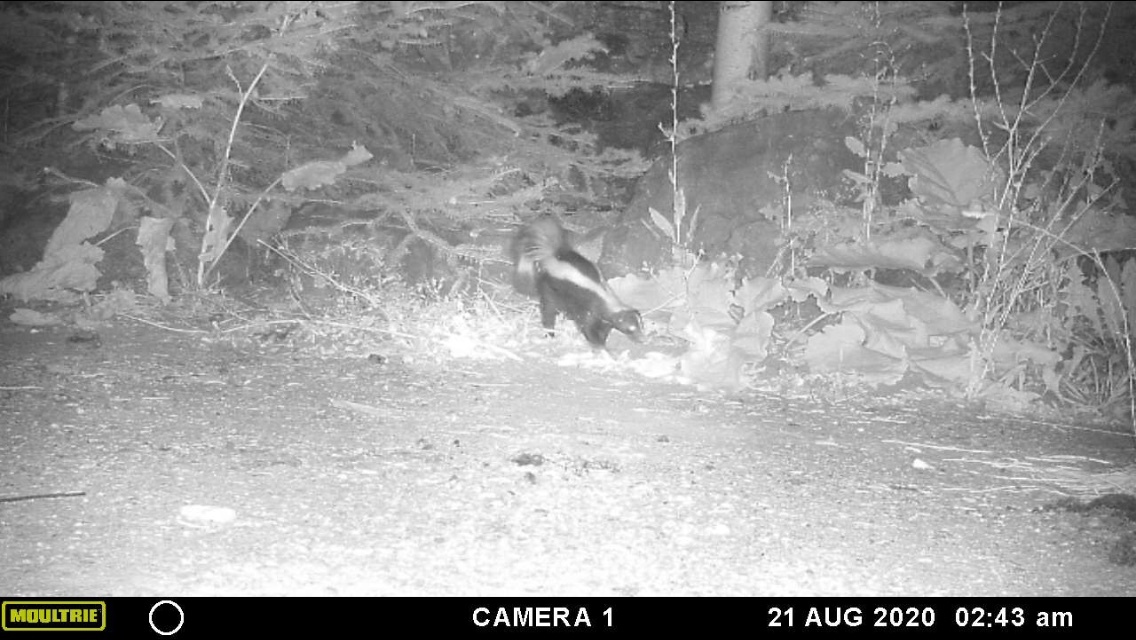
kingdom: Animalia
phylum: Chordata
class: Mammalia
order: Carnivora
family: Mephitidae
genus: Mephitis
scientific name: Mephitis mephitis
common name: Striped skunk
